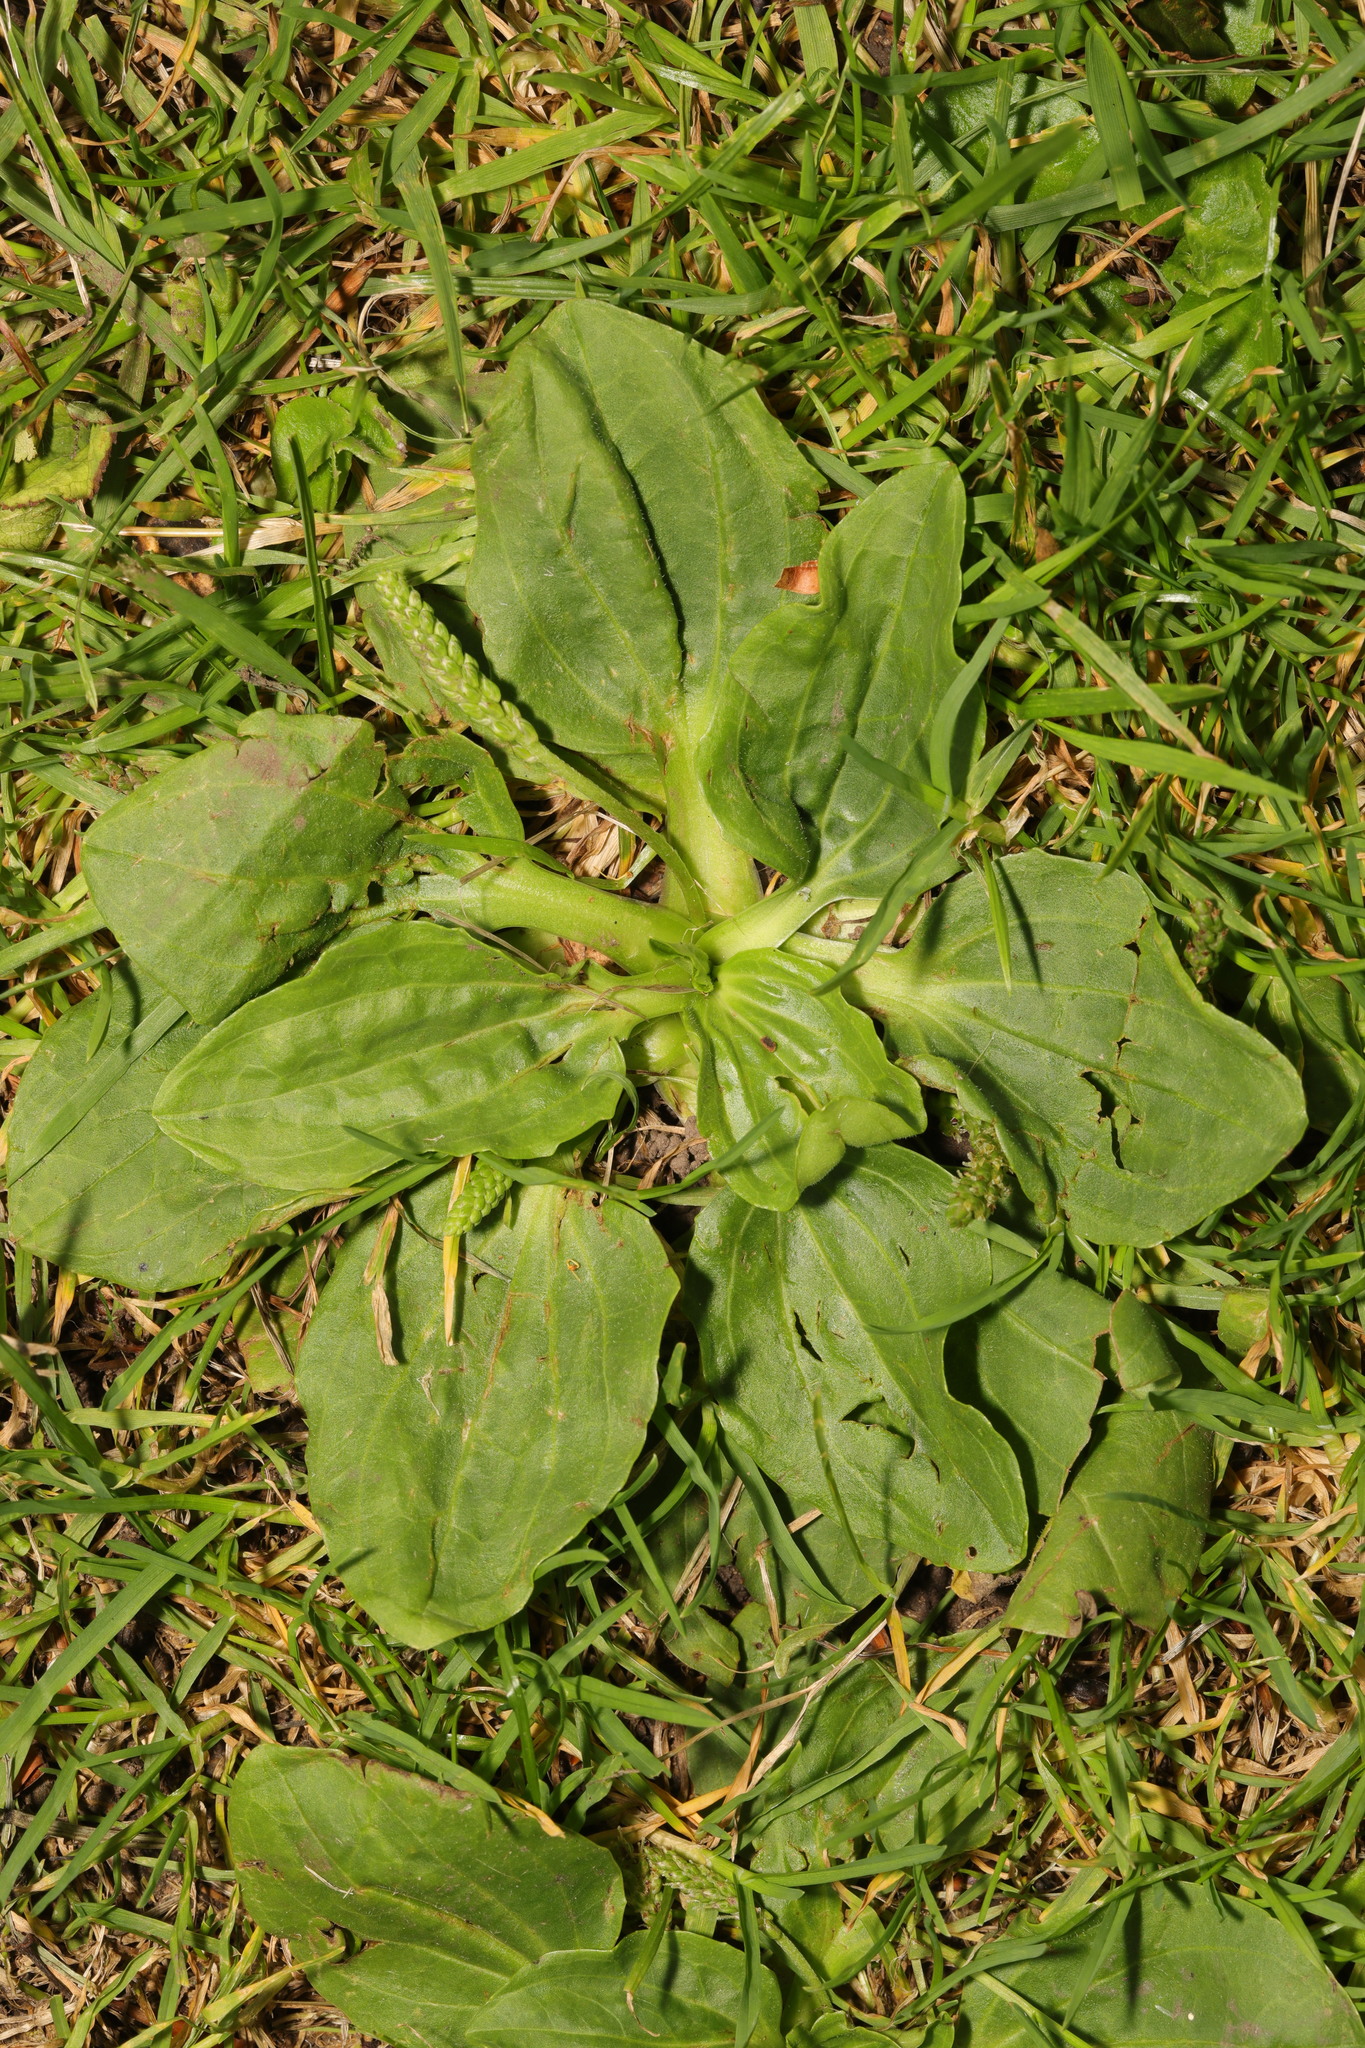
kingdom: Plantae
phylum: Tracheophyta
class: Magnoliopsida
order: Lamiales
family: Plantaginaceae
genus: Plantago
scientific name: Plantago major
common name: Common plantain
